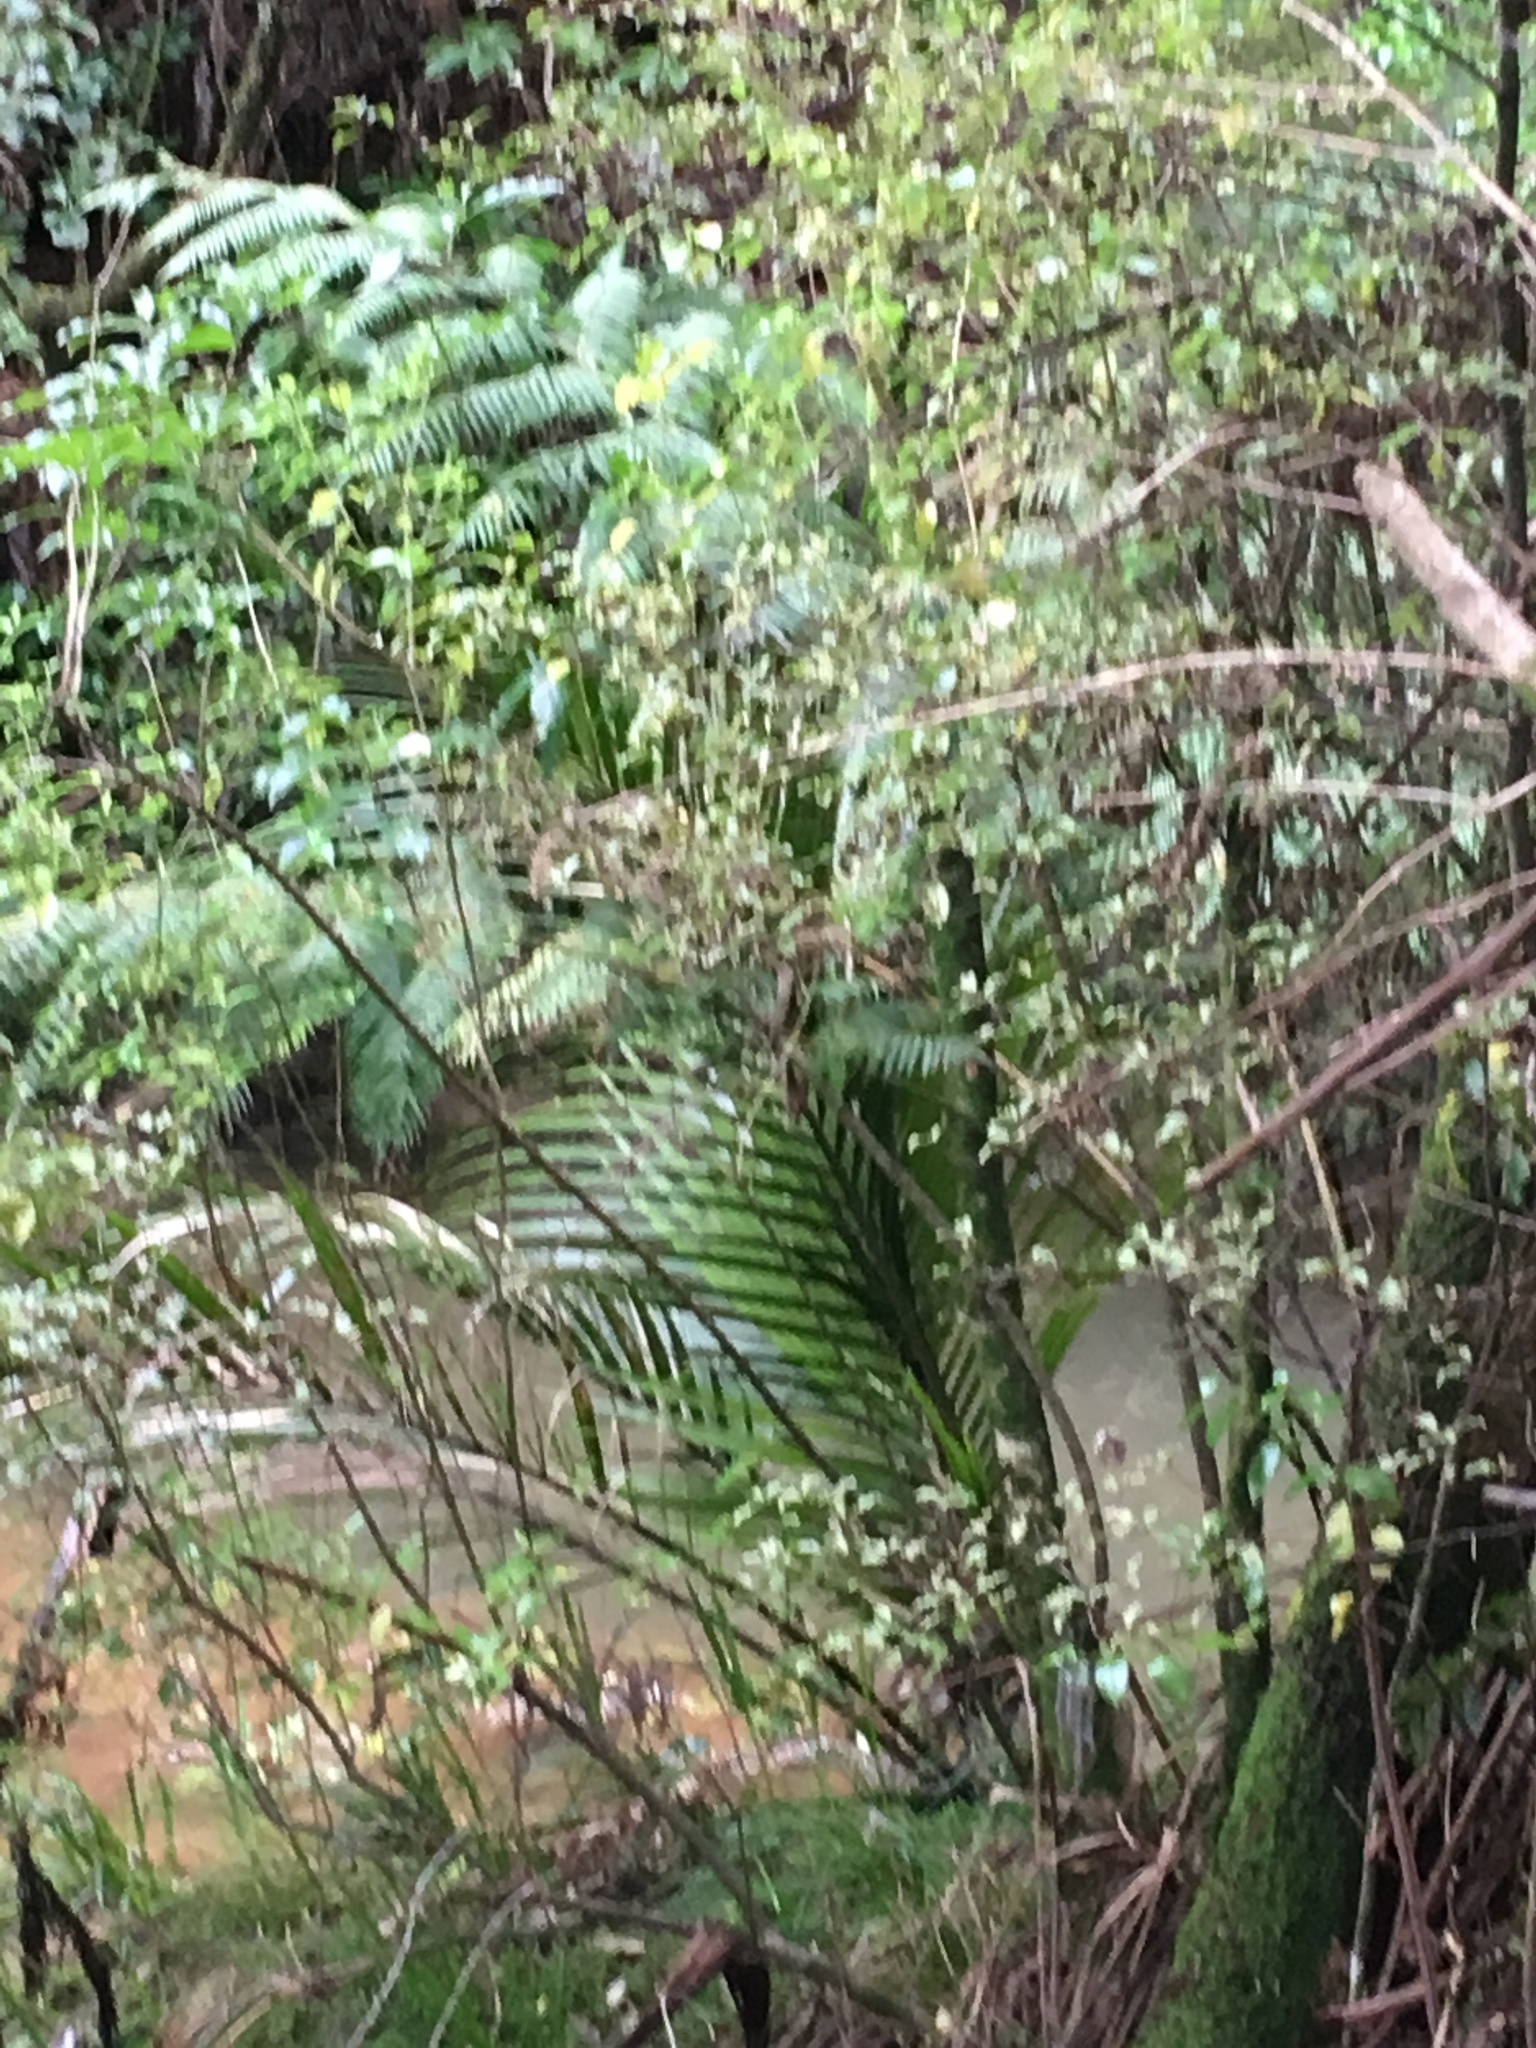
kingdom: Plantae
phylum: Tracheophyta
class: Liliopsida
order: Arecales
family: Arecaceae
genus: Rhopalostylis
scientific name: Rhopalostylis sapida
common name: Feather-duster palm
